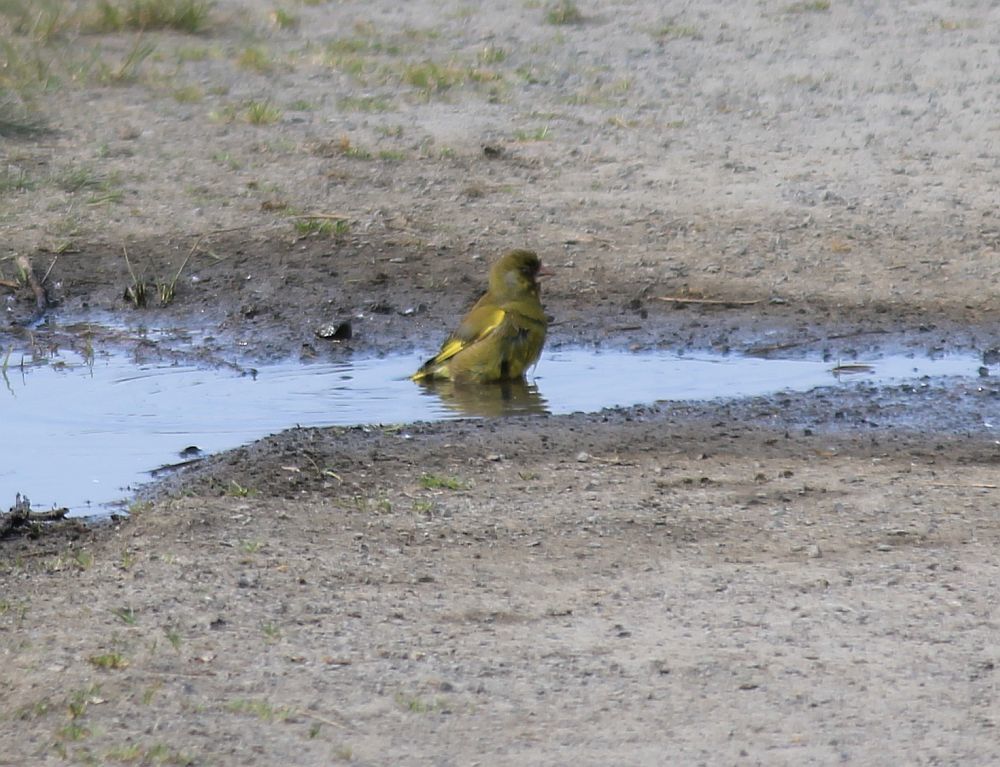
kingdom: Plantae
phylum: Tracheophyta
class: Liliopsida
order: Poales
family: Poaceae
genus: Chloris
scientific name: Chloris chloris
